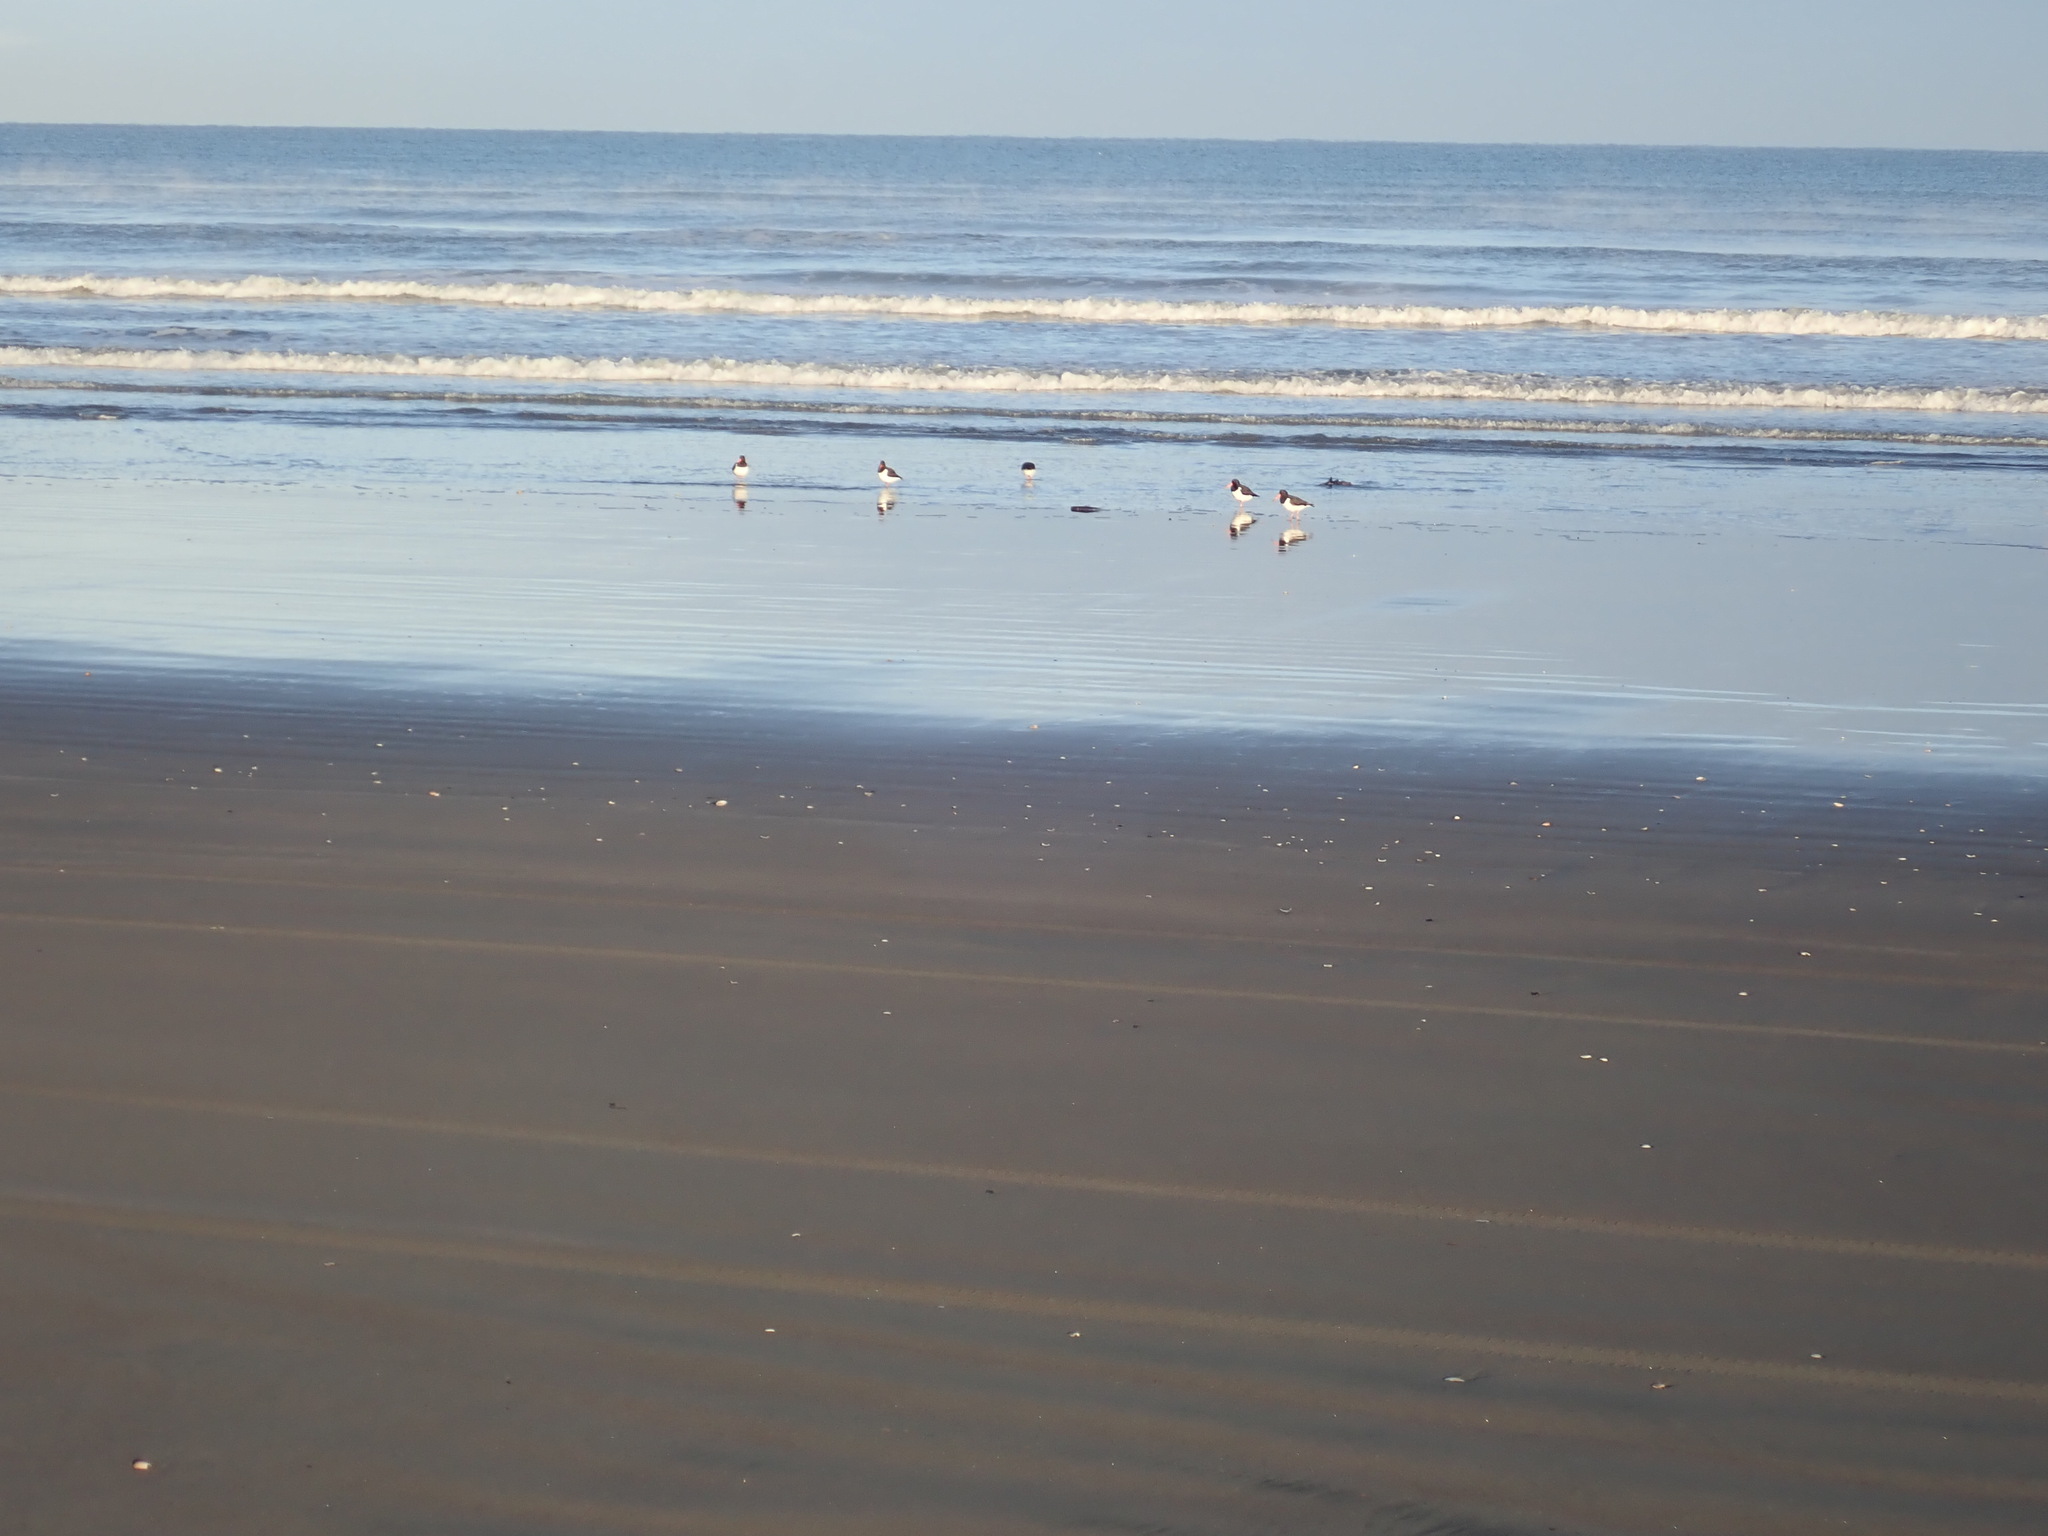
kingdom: Animalia
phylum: Chordata
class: Aves
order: Charadriiformes
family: Haematopodidae
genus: Haematopus
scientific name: Haematopus finschi
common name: South island oystercatcher
